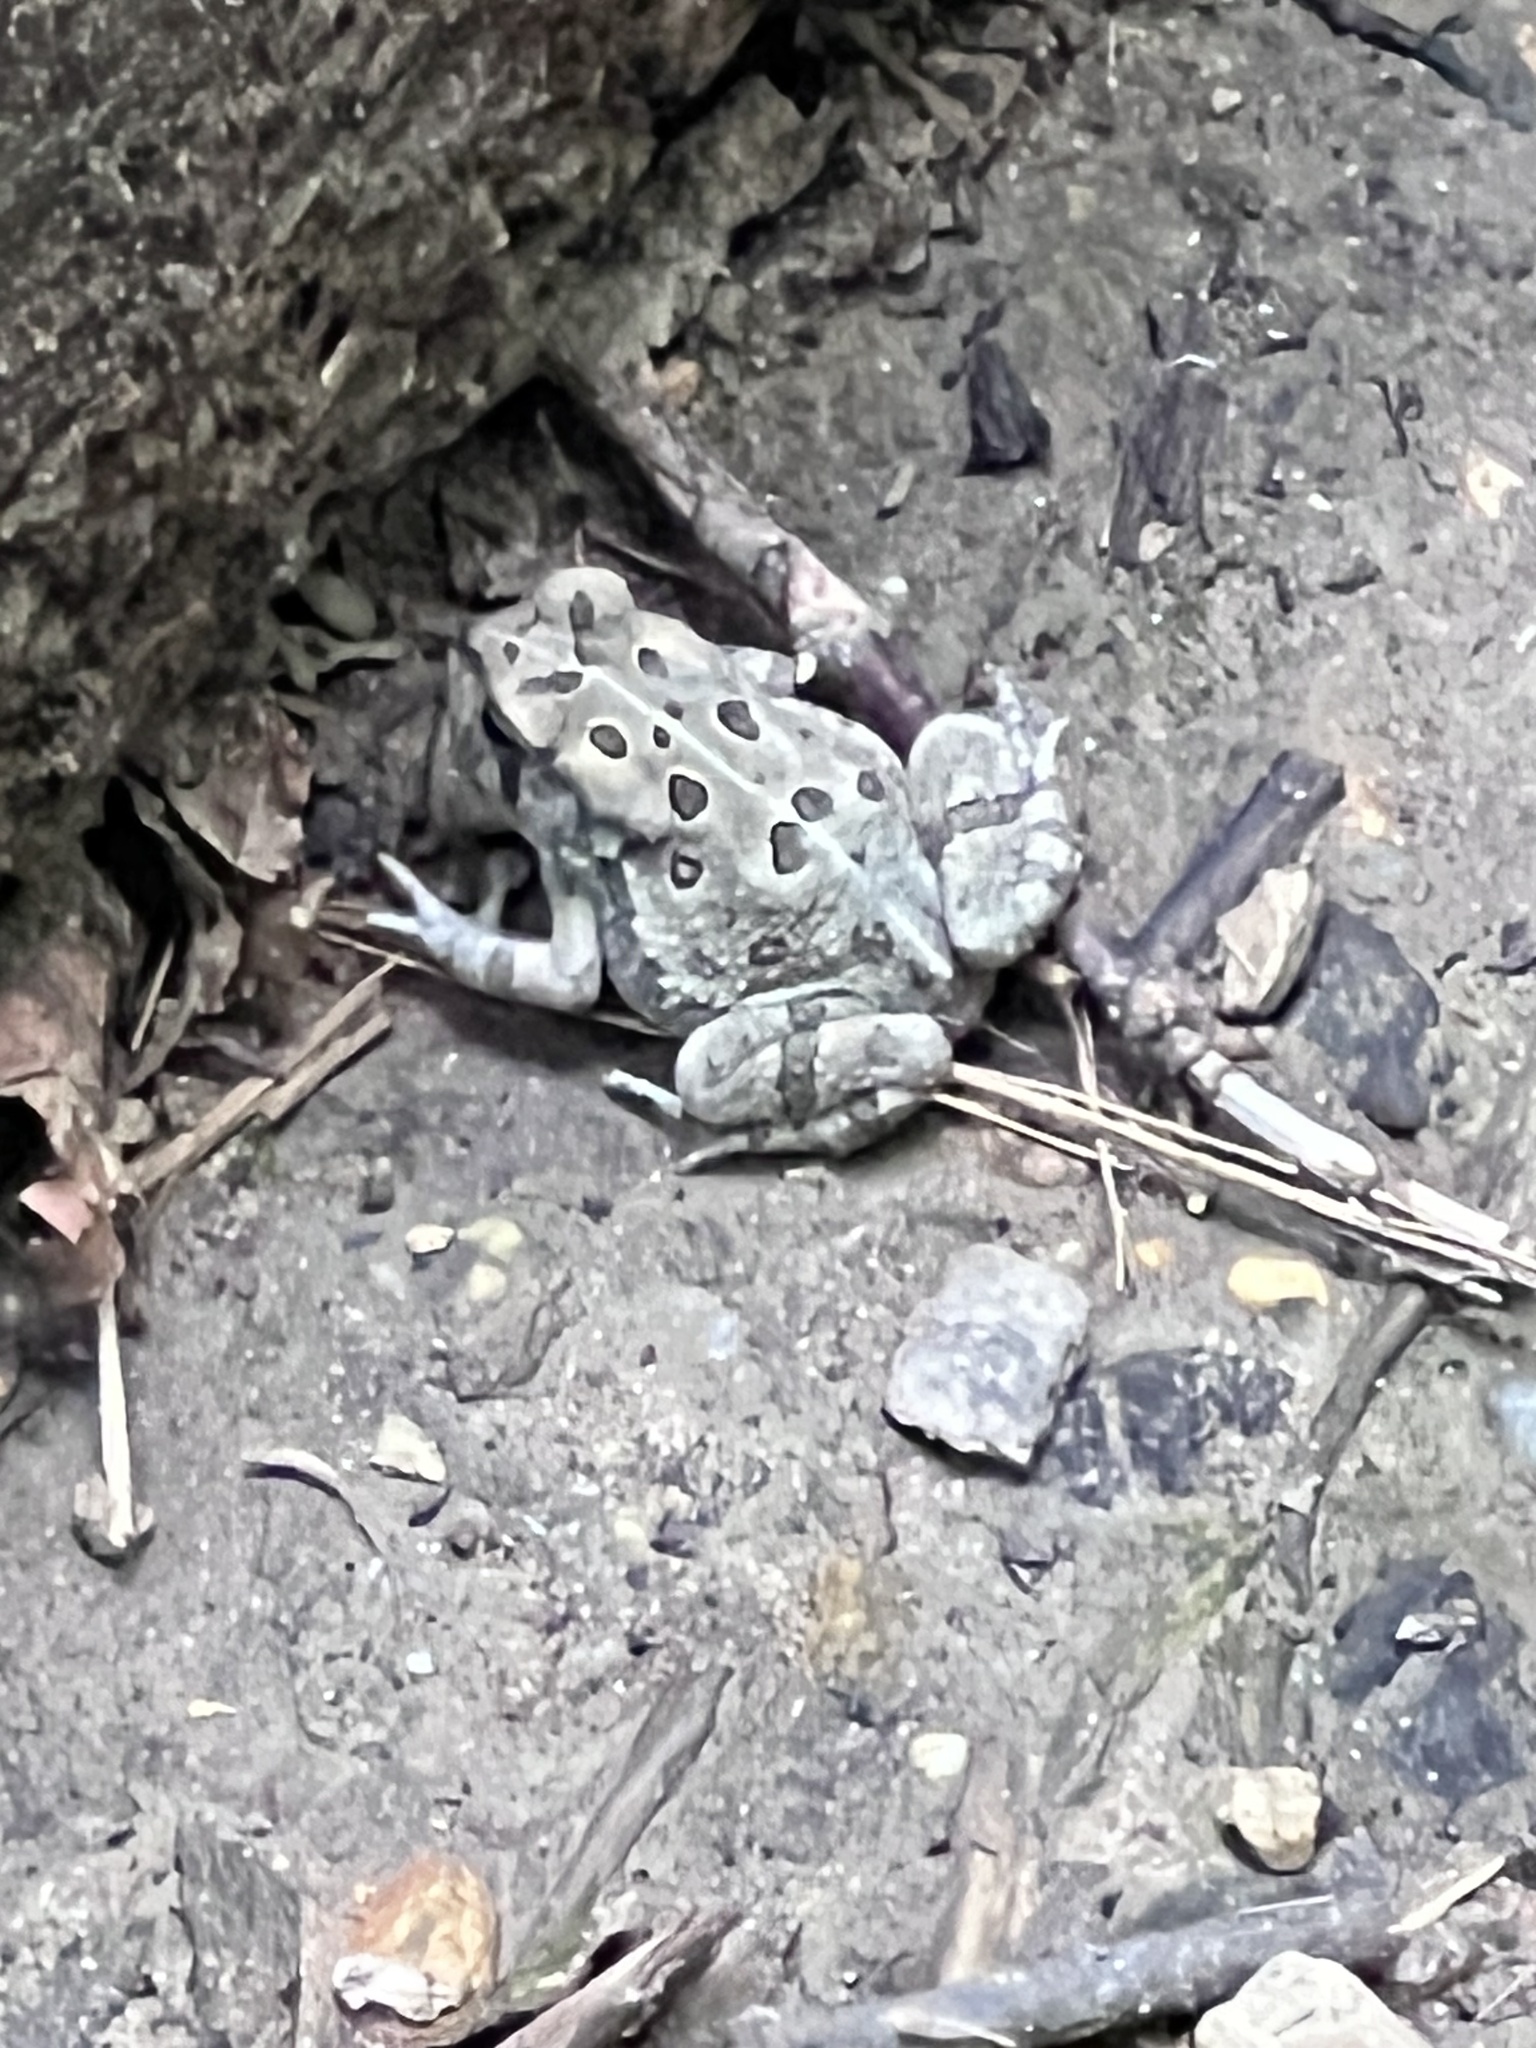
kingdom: Animalia
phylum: Chordata
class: Amphibia
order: Anura
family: Bufonidae
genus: Anaxyrus
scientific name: Anaxyrus fowleri
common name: Fowler's toad
